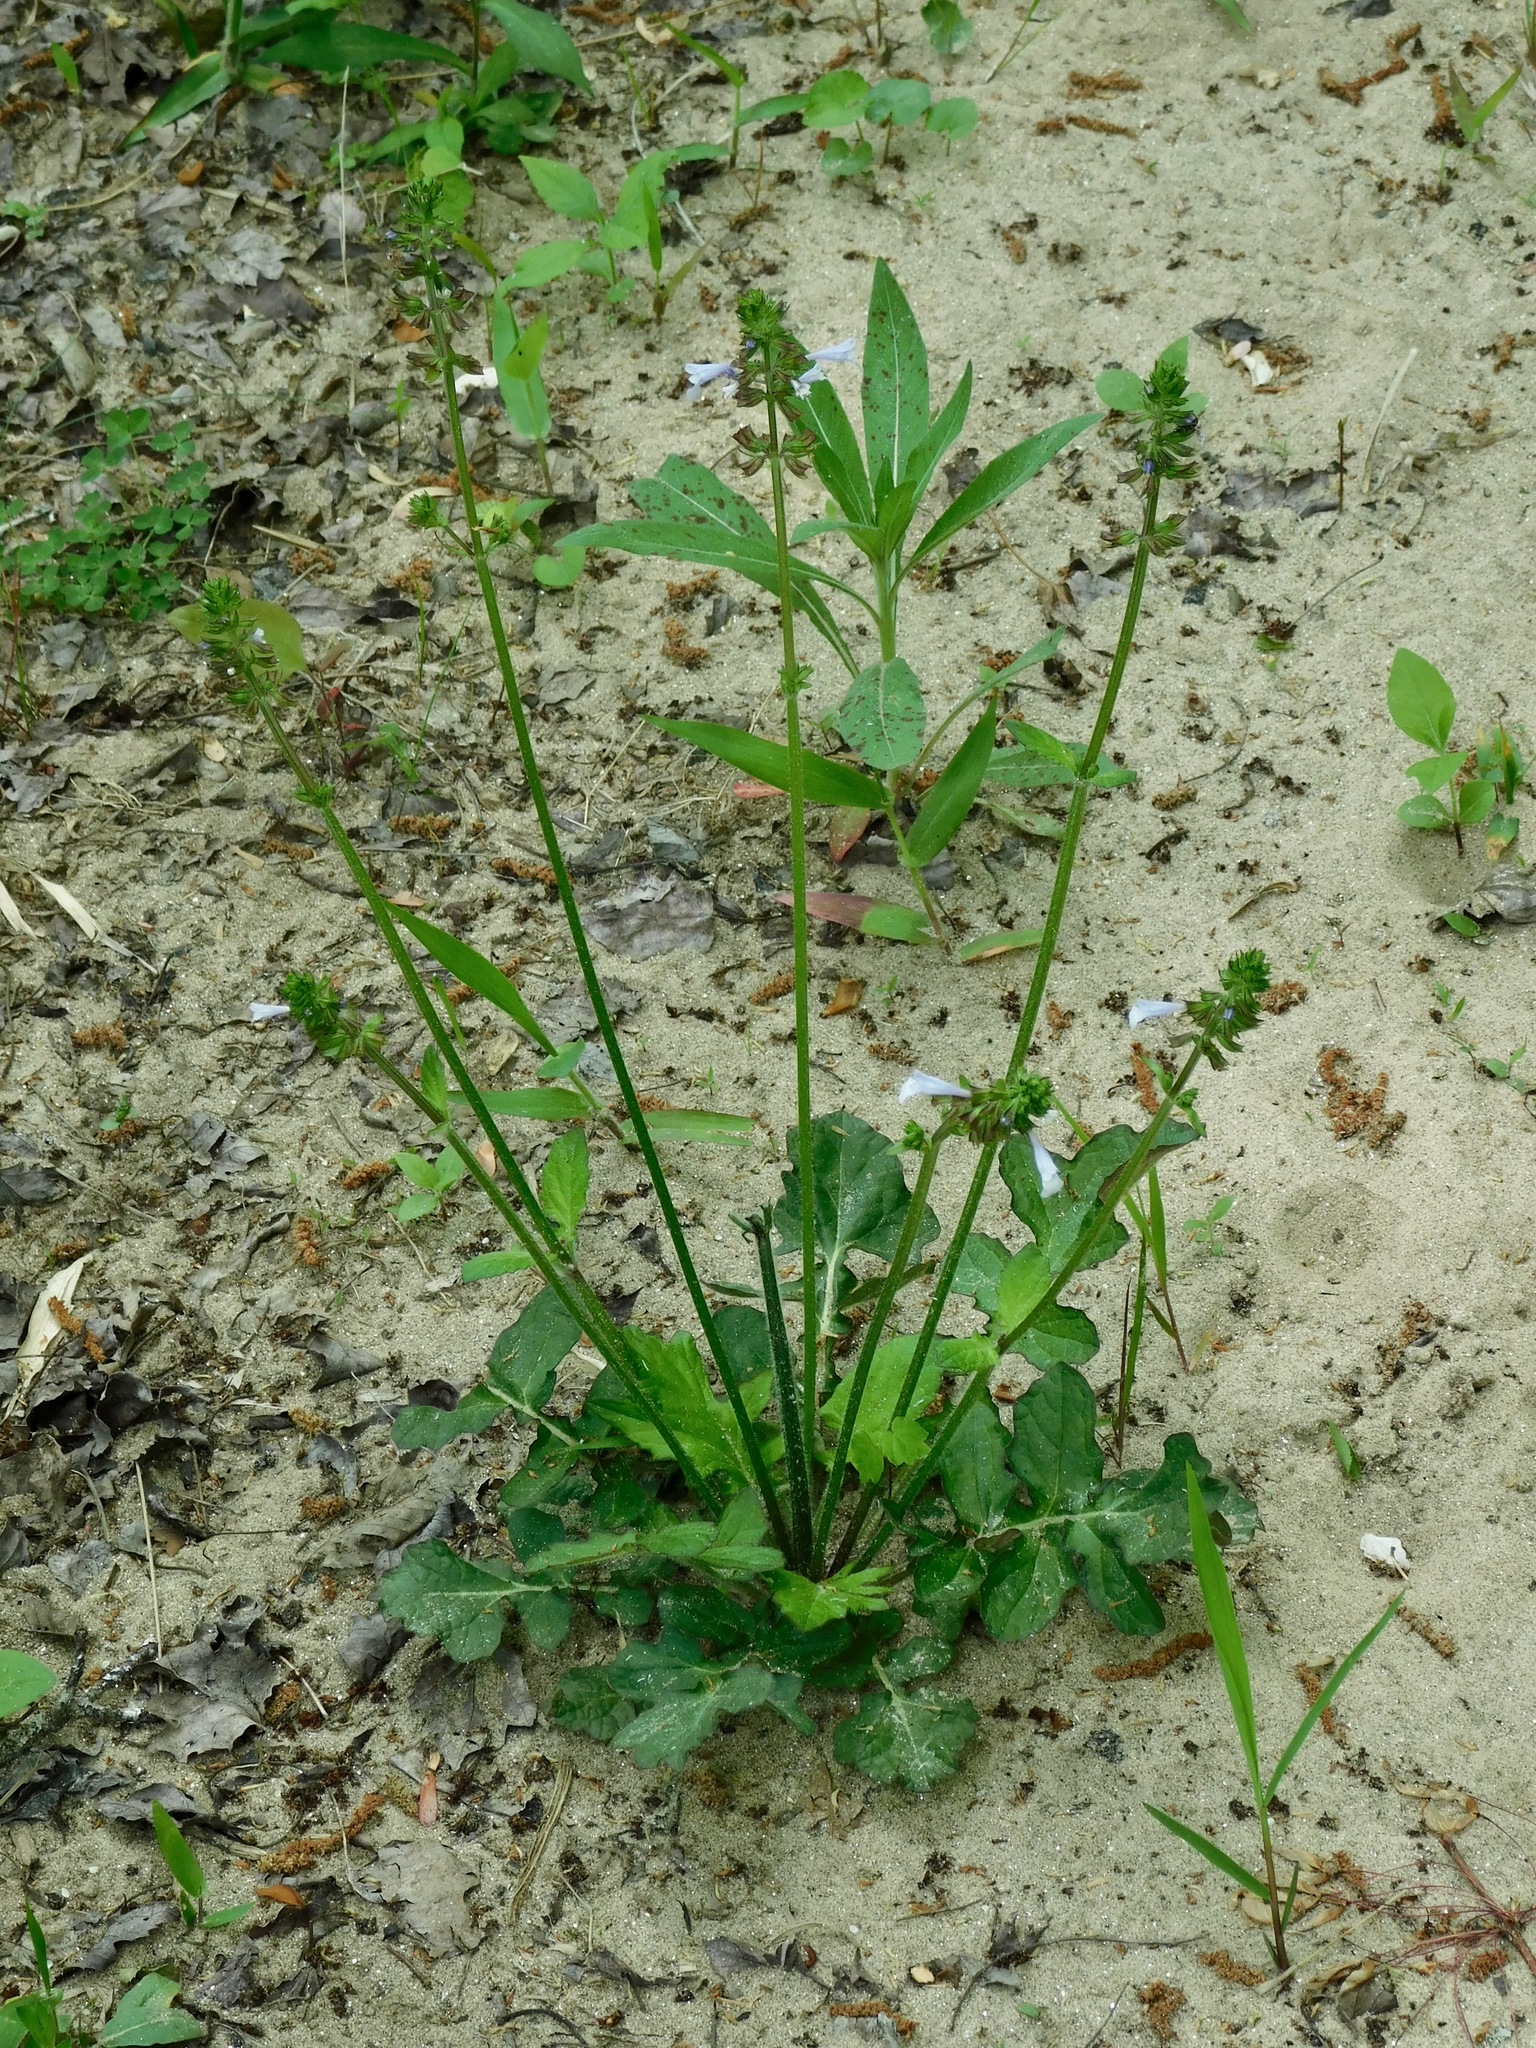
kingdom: Plantae
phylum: Tracheophyta
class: Magnoliopsida
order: Lamiales
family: Lamiaceae
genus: Salvia
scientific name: Salvia lyrata
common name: Cancerweed
